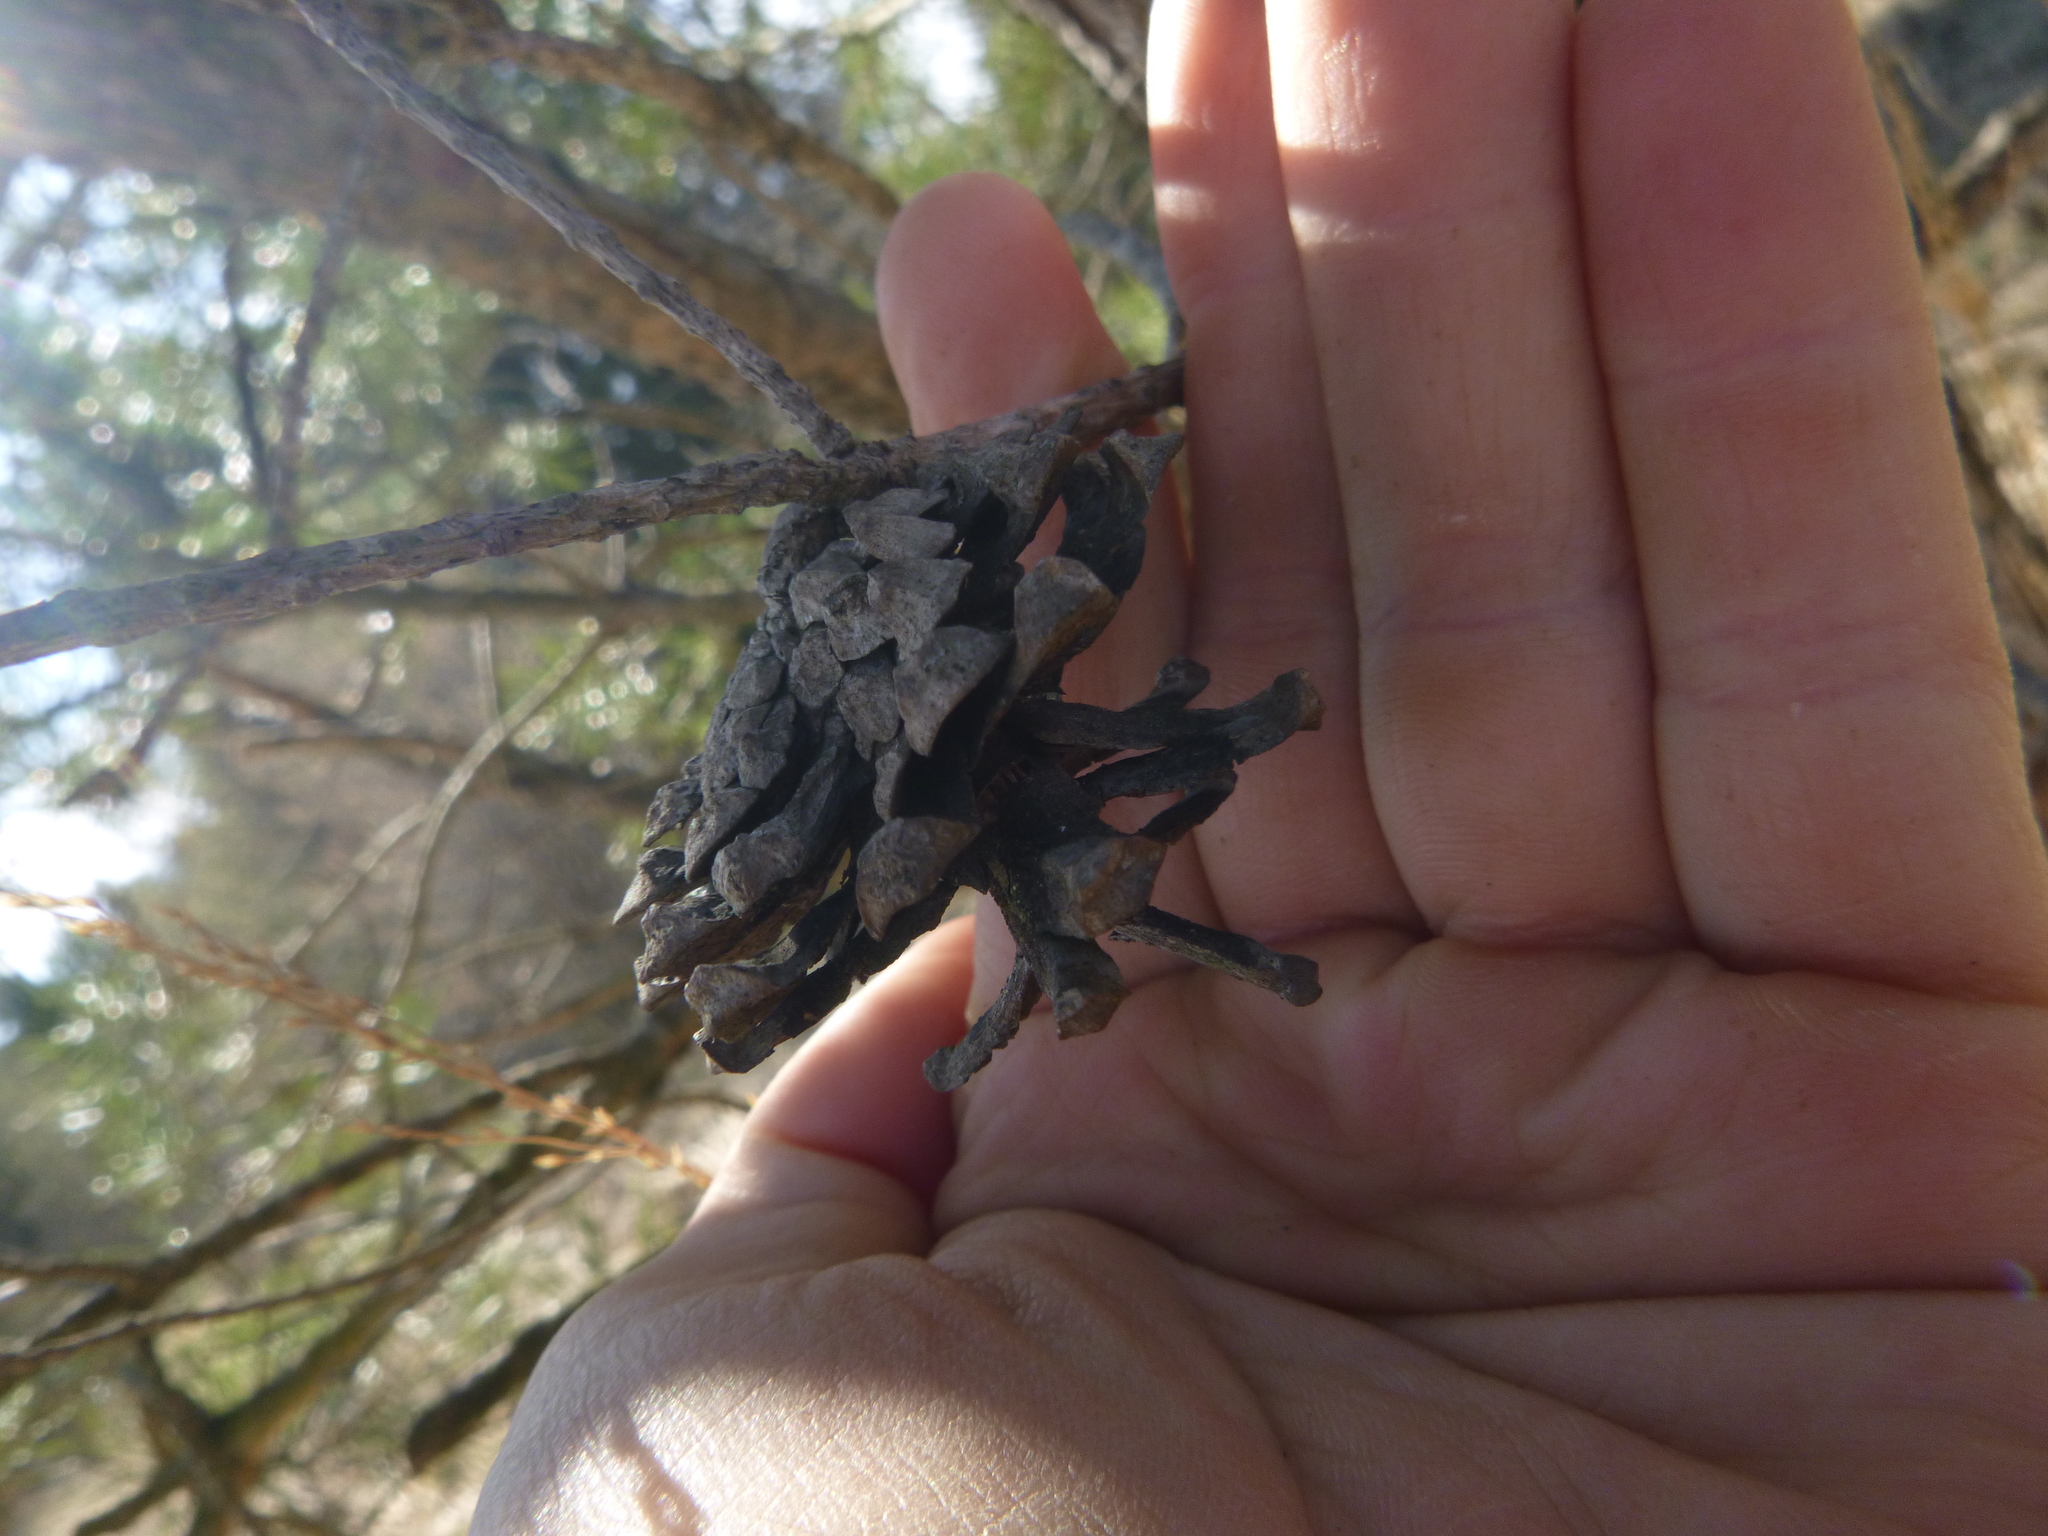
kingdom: Plantae
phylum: Tracheophyta
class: Pinopsida
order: Pinales
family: Pinaceae
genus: Pinus
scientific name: Pinus sylvestris
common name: Scots pine
